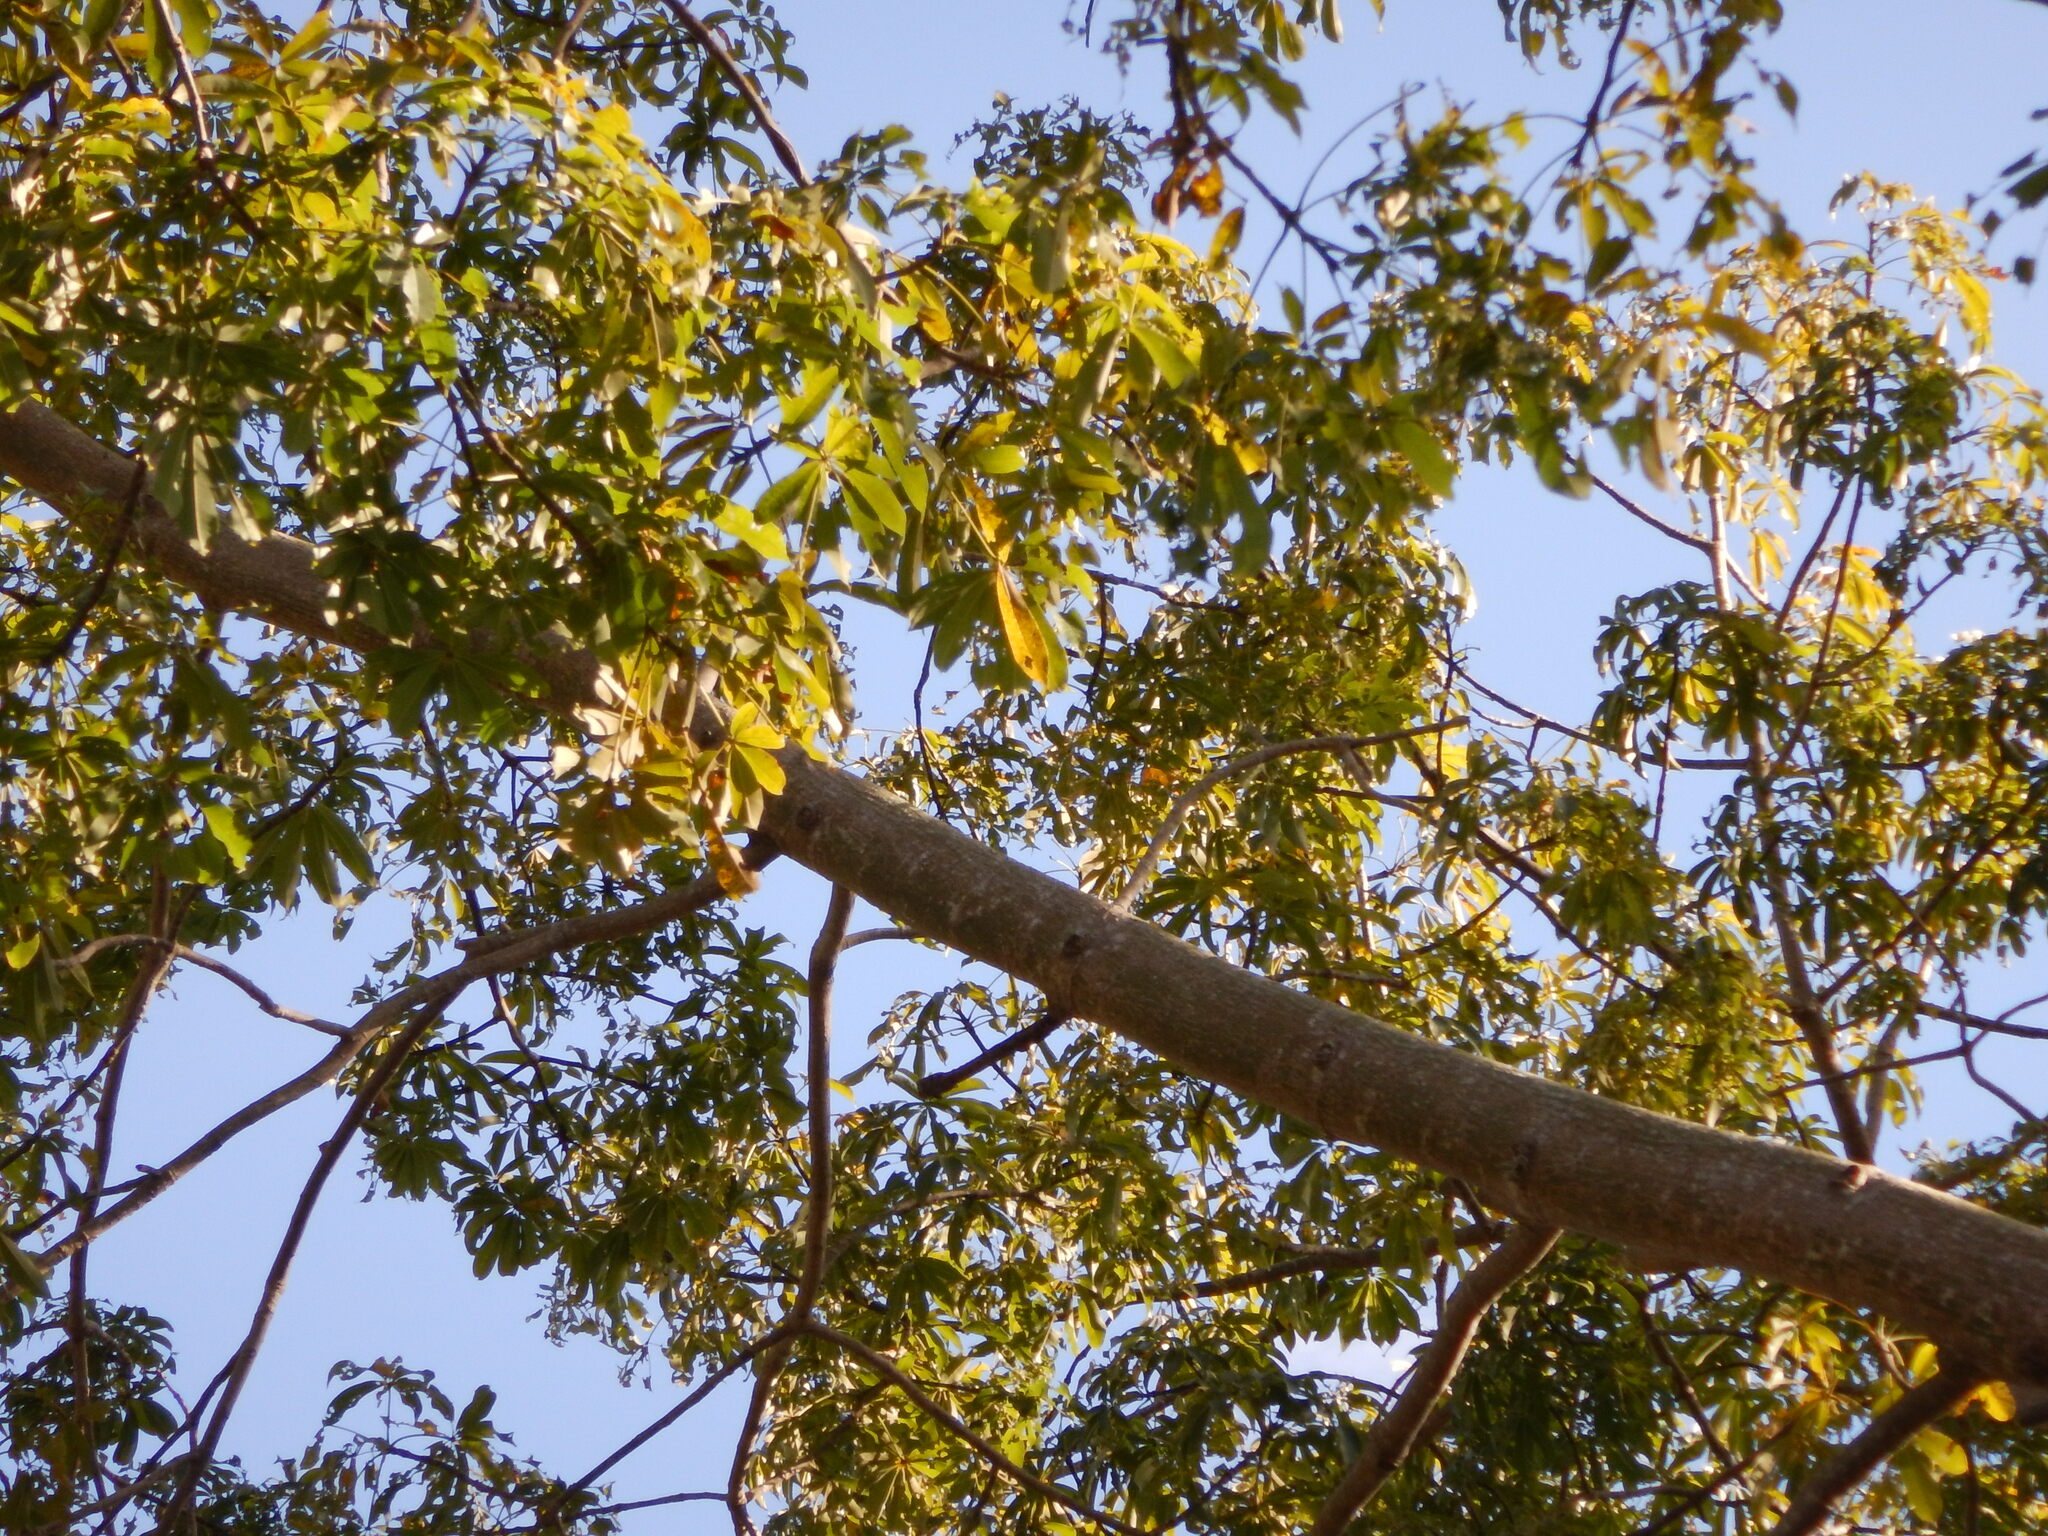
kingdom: Plantae
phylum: Tracheophyta
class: Magnoliopsida
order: Malvales
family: Malvaceae
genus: Ceiba
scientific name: Ceiba pentandra
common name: Kapok
